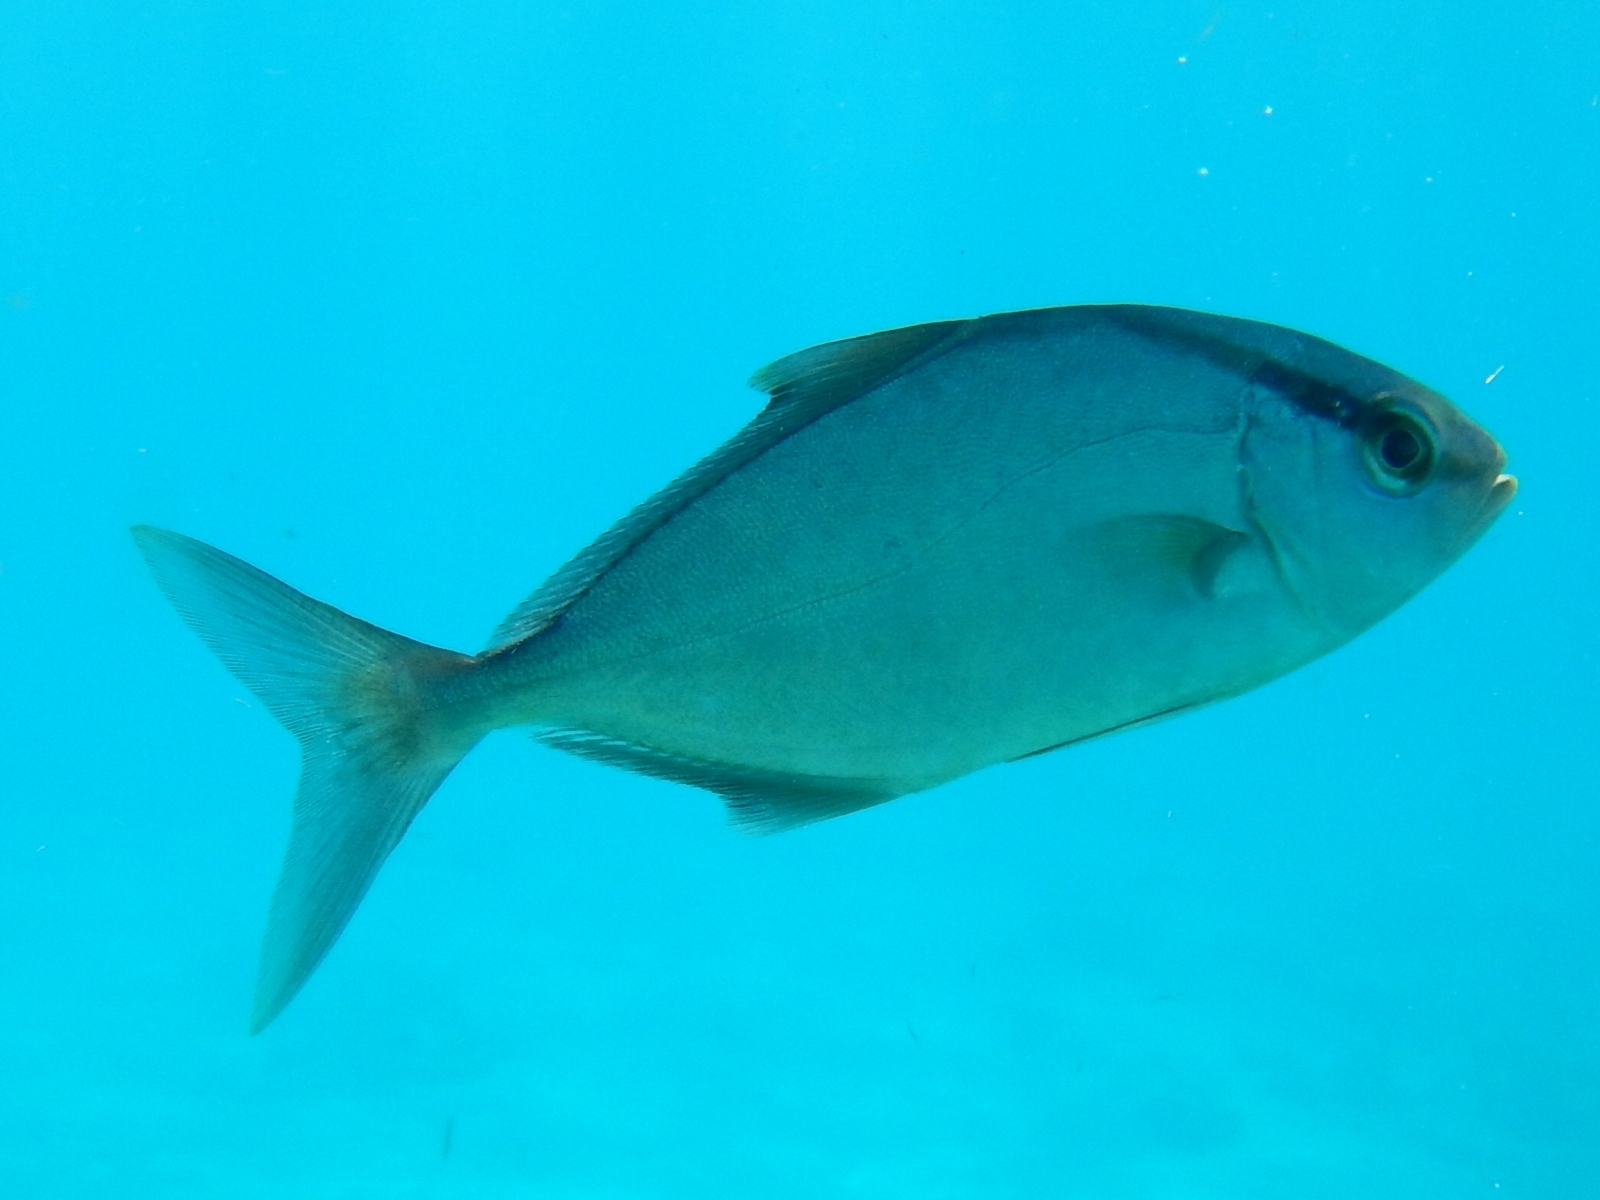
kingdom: Animalia
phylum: Chordata
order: Perciformes
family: Carangidae
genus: Seriola
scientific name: Seriola rivoliana
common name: Almaco jack
